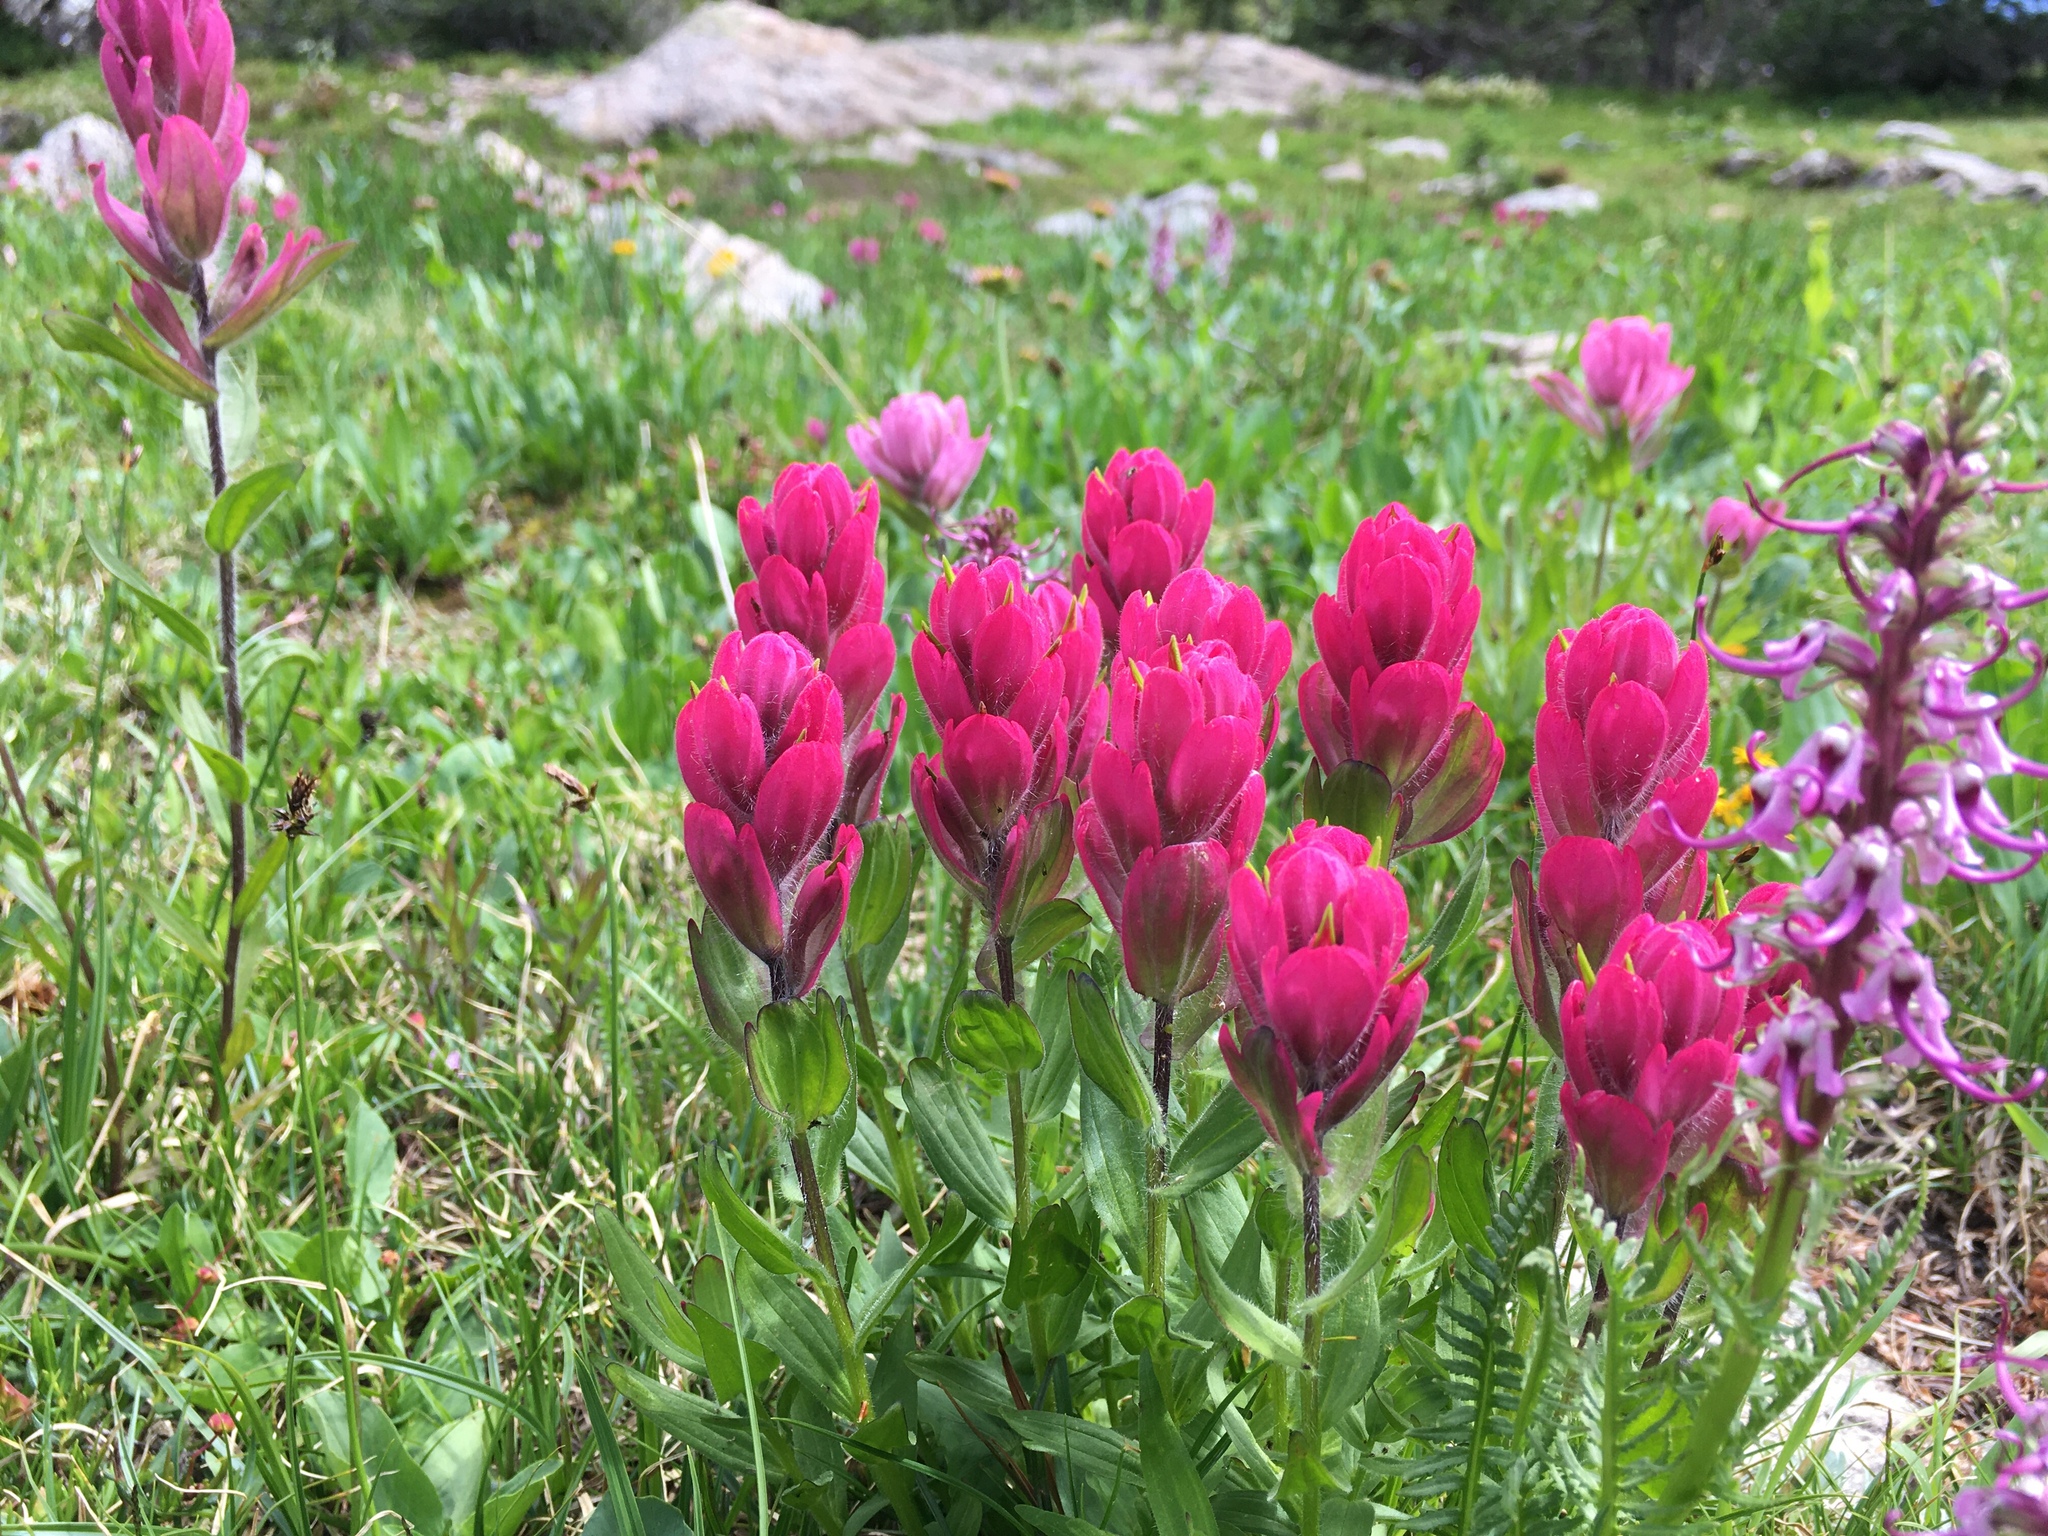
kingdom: Plantae
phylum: Tracheophyta
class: Magnoliopsida
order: Lamiales
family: Orobanchaceae
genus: Castilleja
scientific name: Castilleja rhexifolia
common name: Rocky mountain paintbrush
